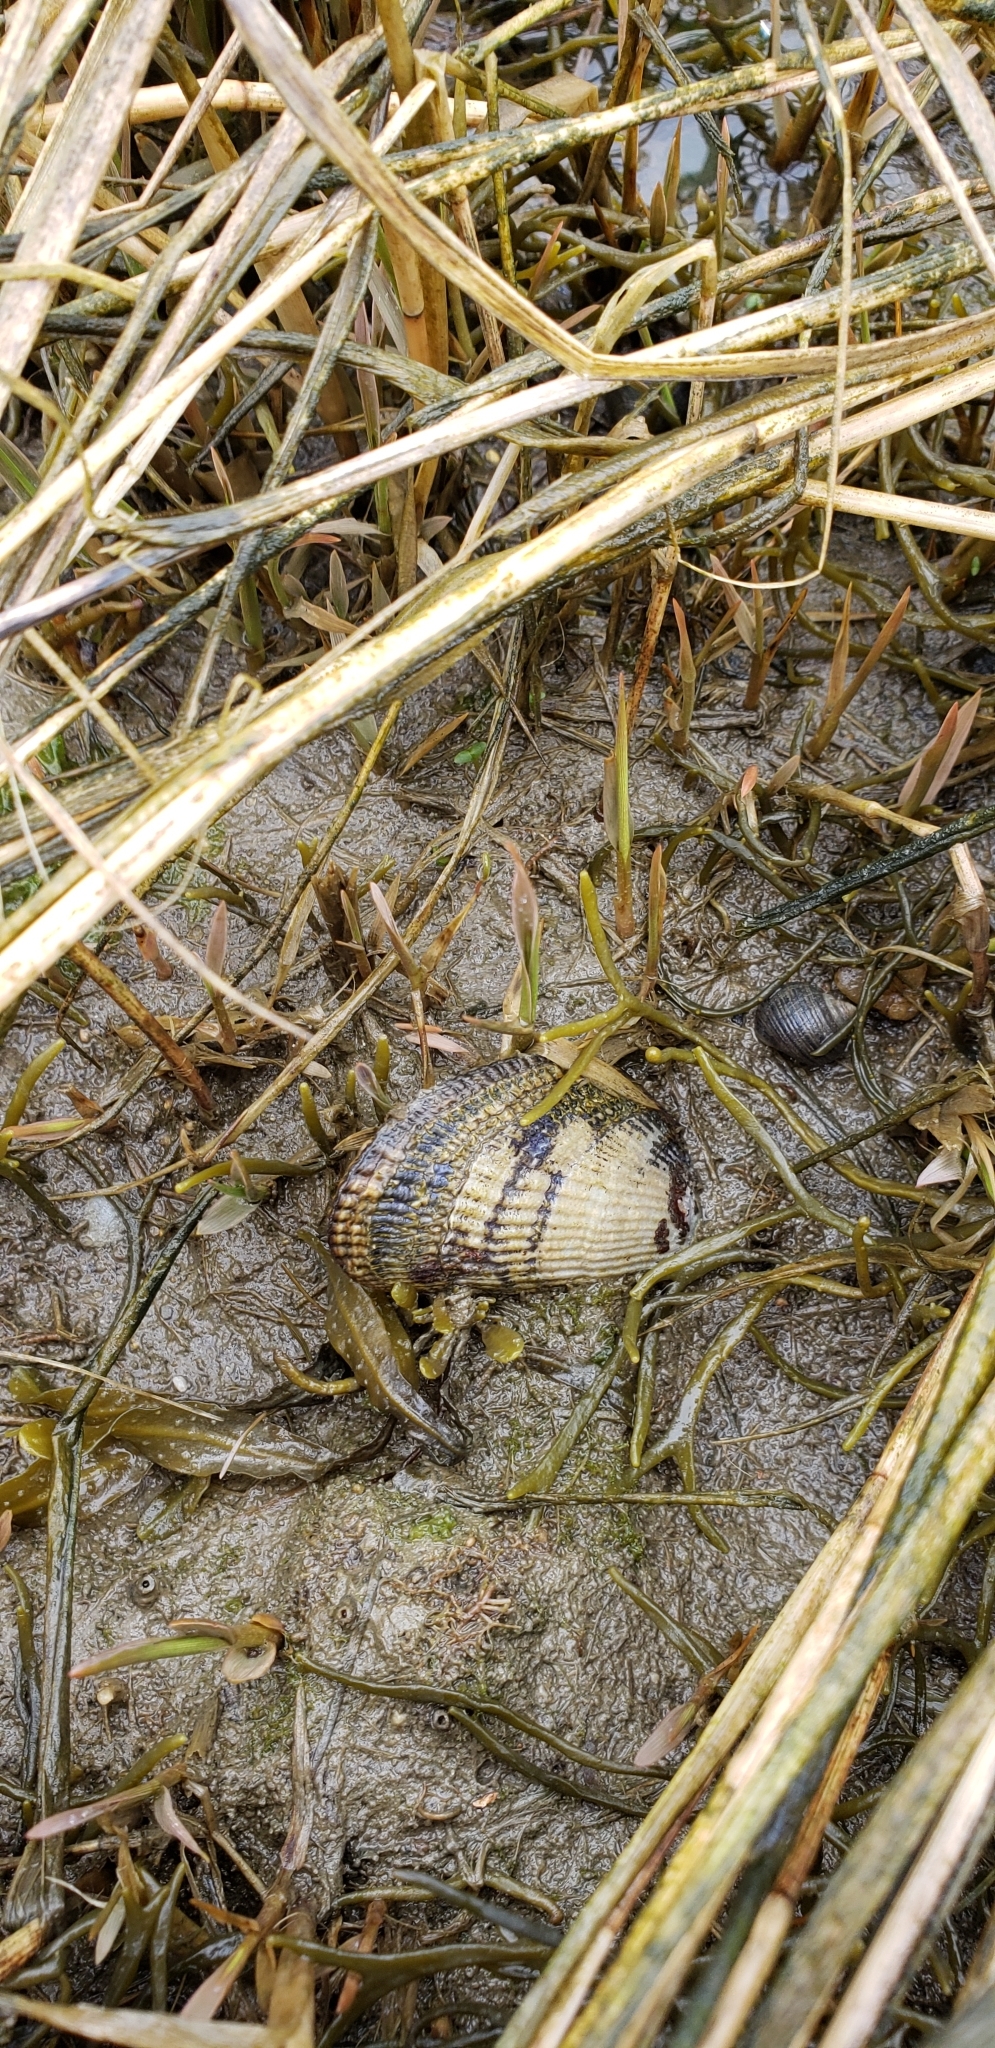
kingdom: Animalia
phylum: Mollusca
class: Bivalvia
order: Mytilida
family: Mytilidae
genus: Geukensia
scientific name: Geukensia demissa
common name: Ribbed mussel
